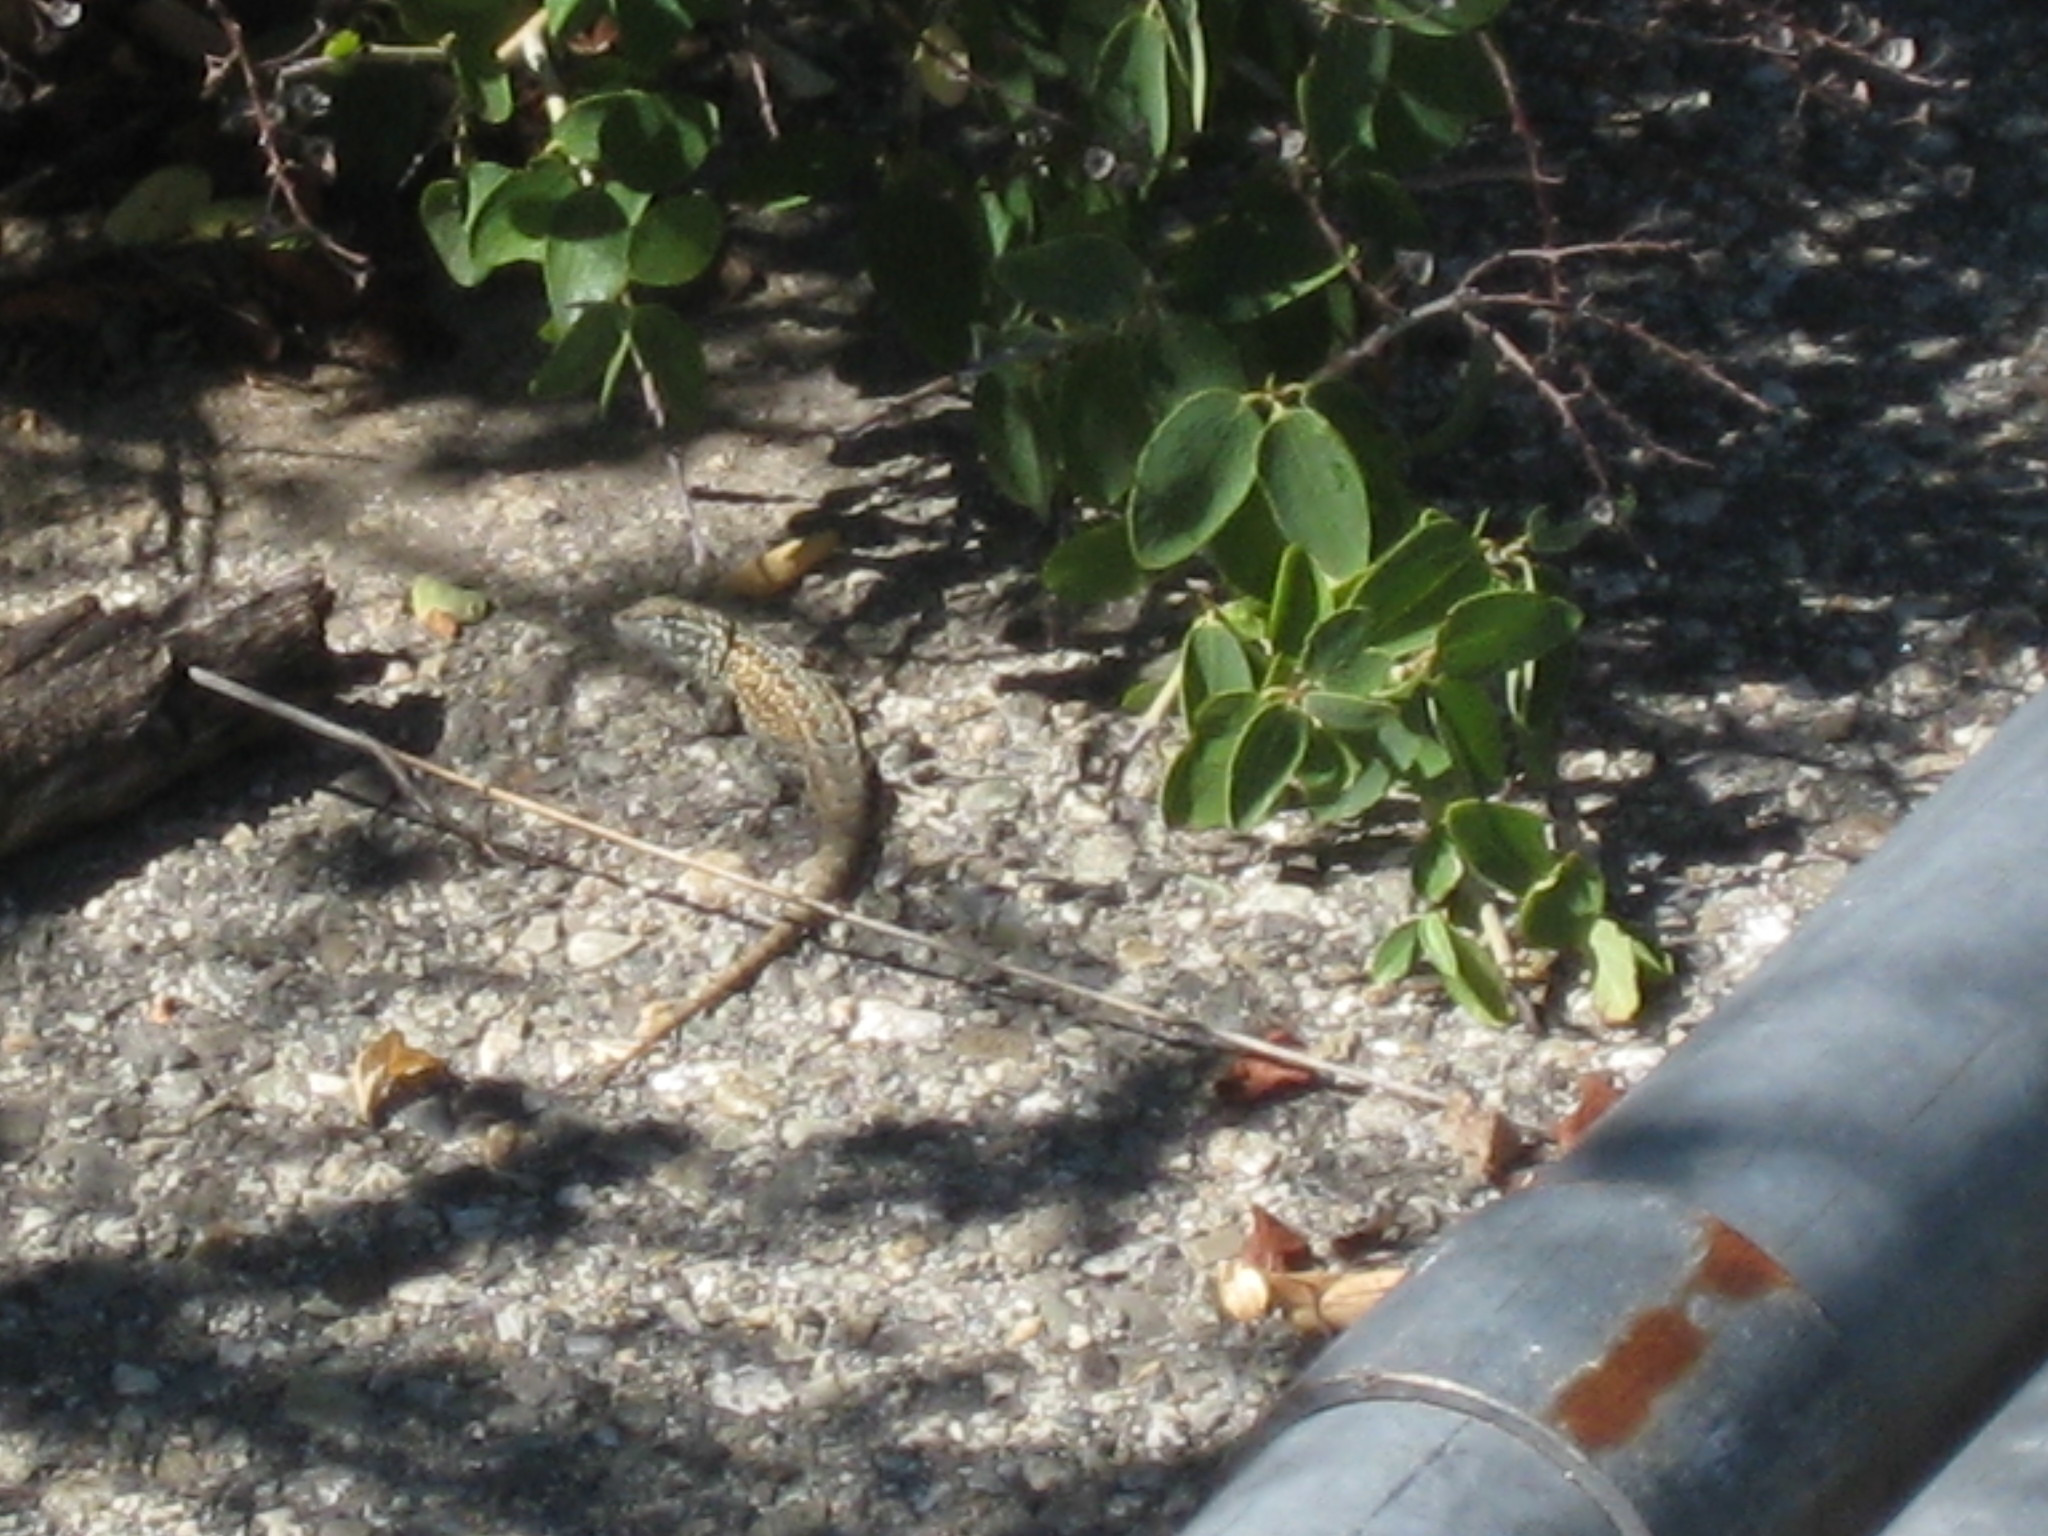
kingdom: Animalia
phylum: Chordata
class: Squamata
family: Phrynosomatidae
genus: Uta
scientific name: Uta stansburiana
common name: Side-blotched lizard
